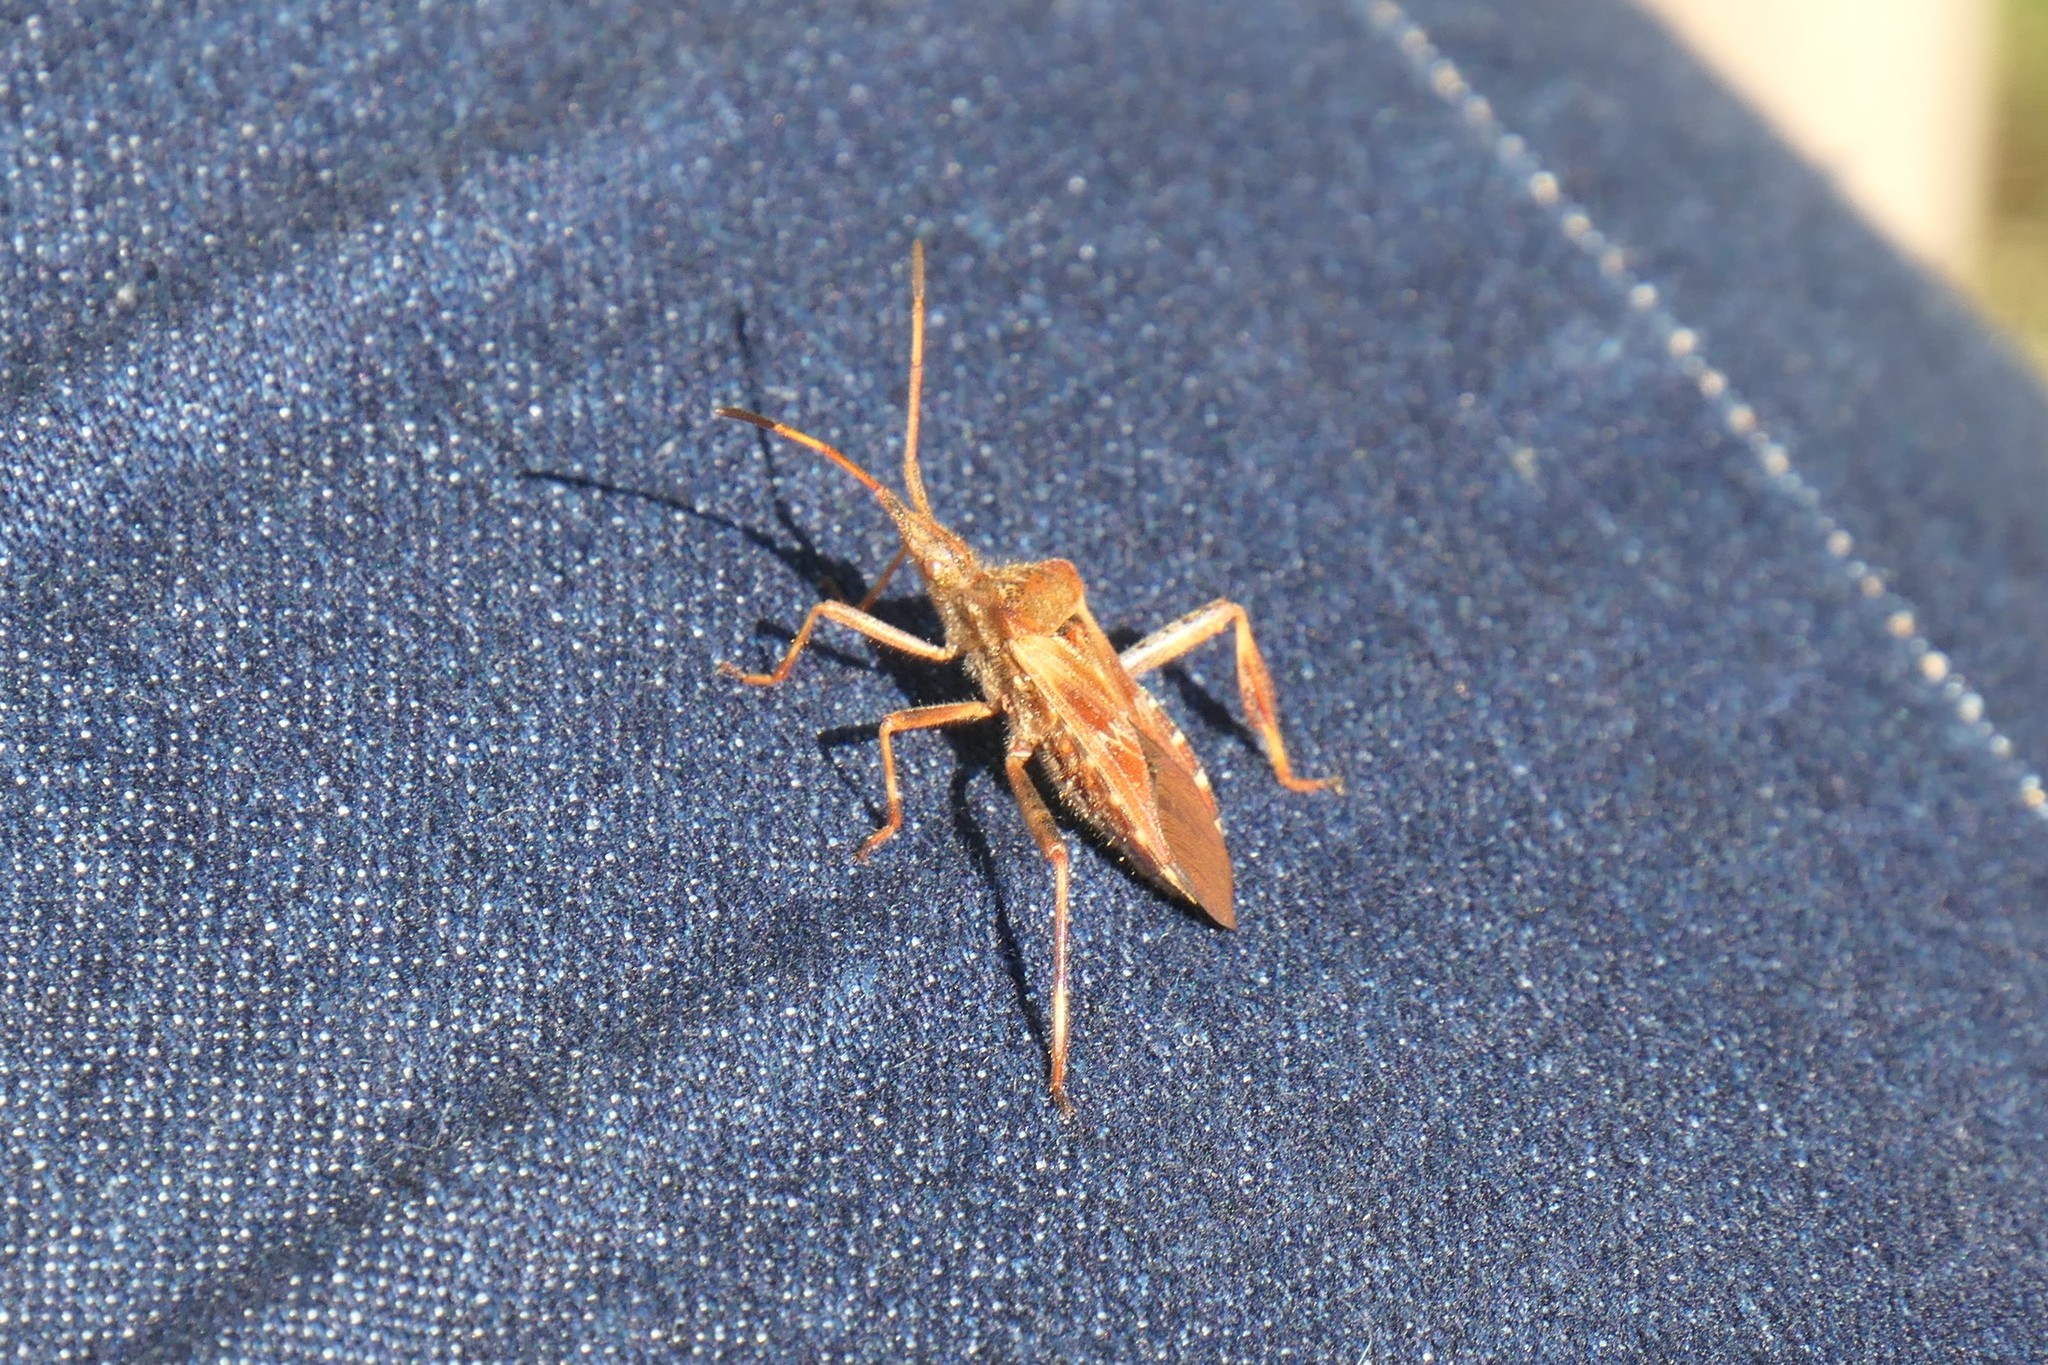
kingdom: Animalia
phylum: Arthropoda
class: Insecta
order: Hemiptera
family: Coreidae
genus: Leptoglossus
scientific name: Leptoglossus occidentalis
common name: Western conifer-seed bug
